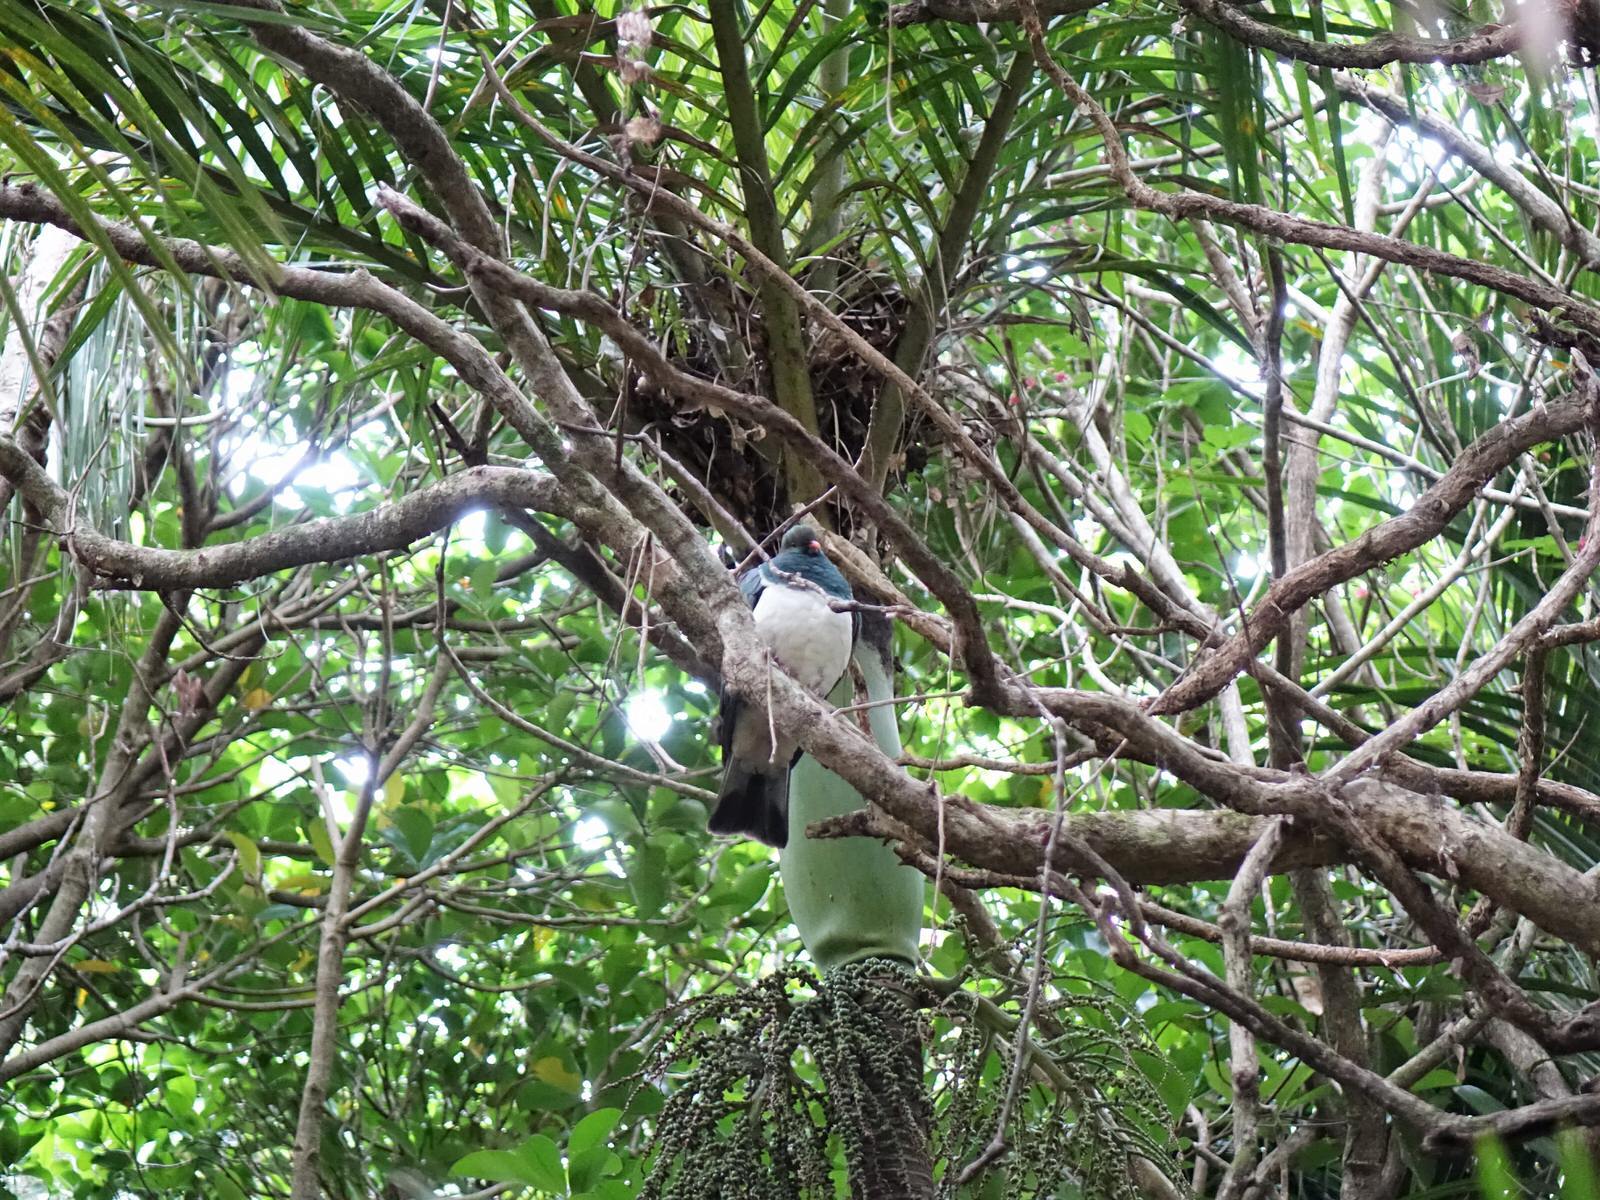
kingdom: Animalia
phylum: Chordata
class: Aves
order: Columbiformes
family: Columbidae
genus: Hemiphaga
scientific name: Hemiphaga novaeseelandiae
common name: New zealand pigeon
